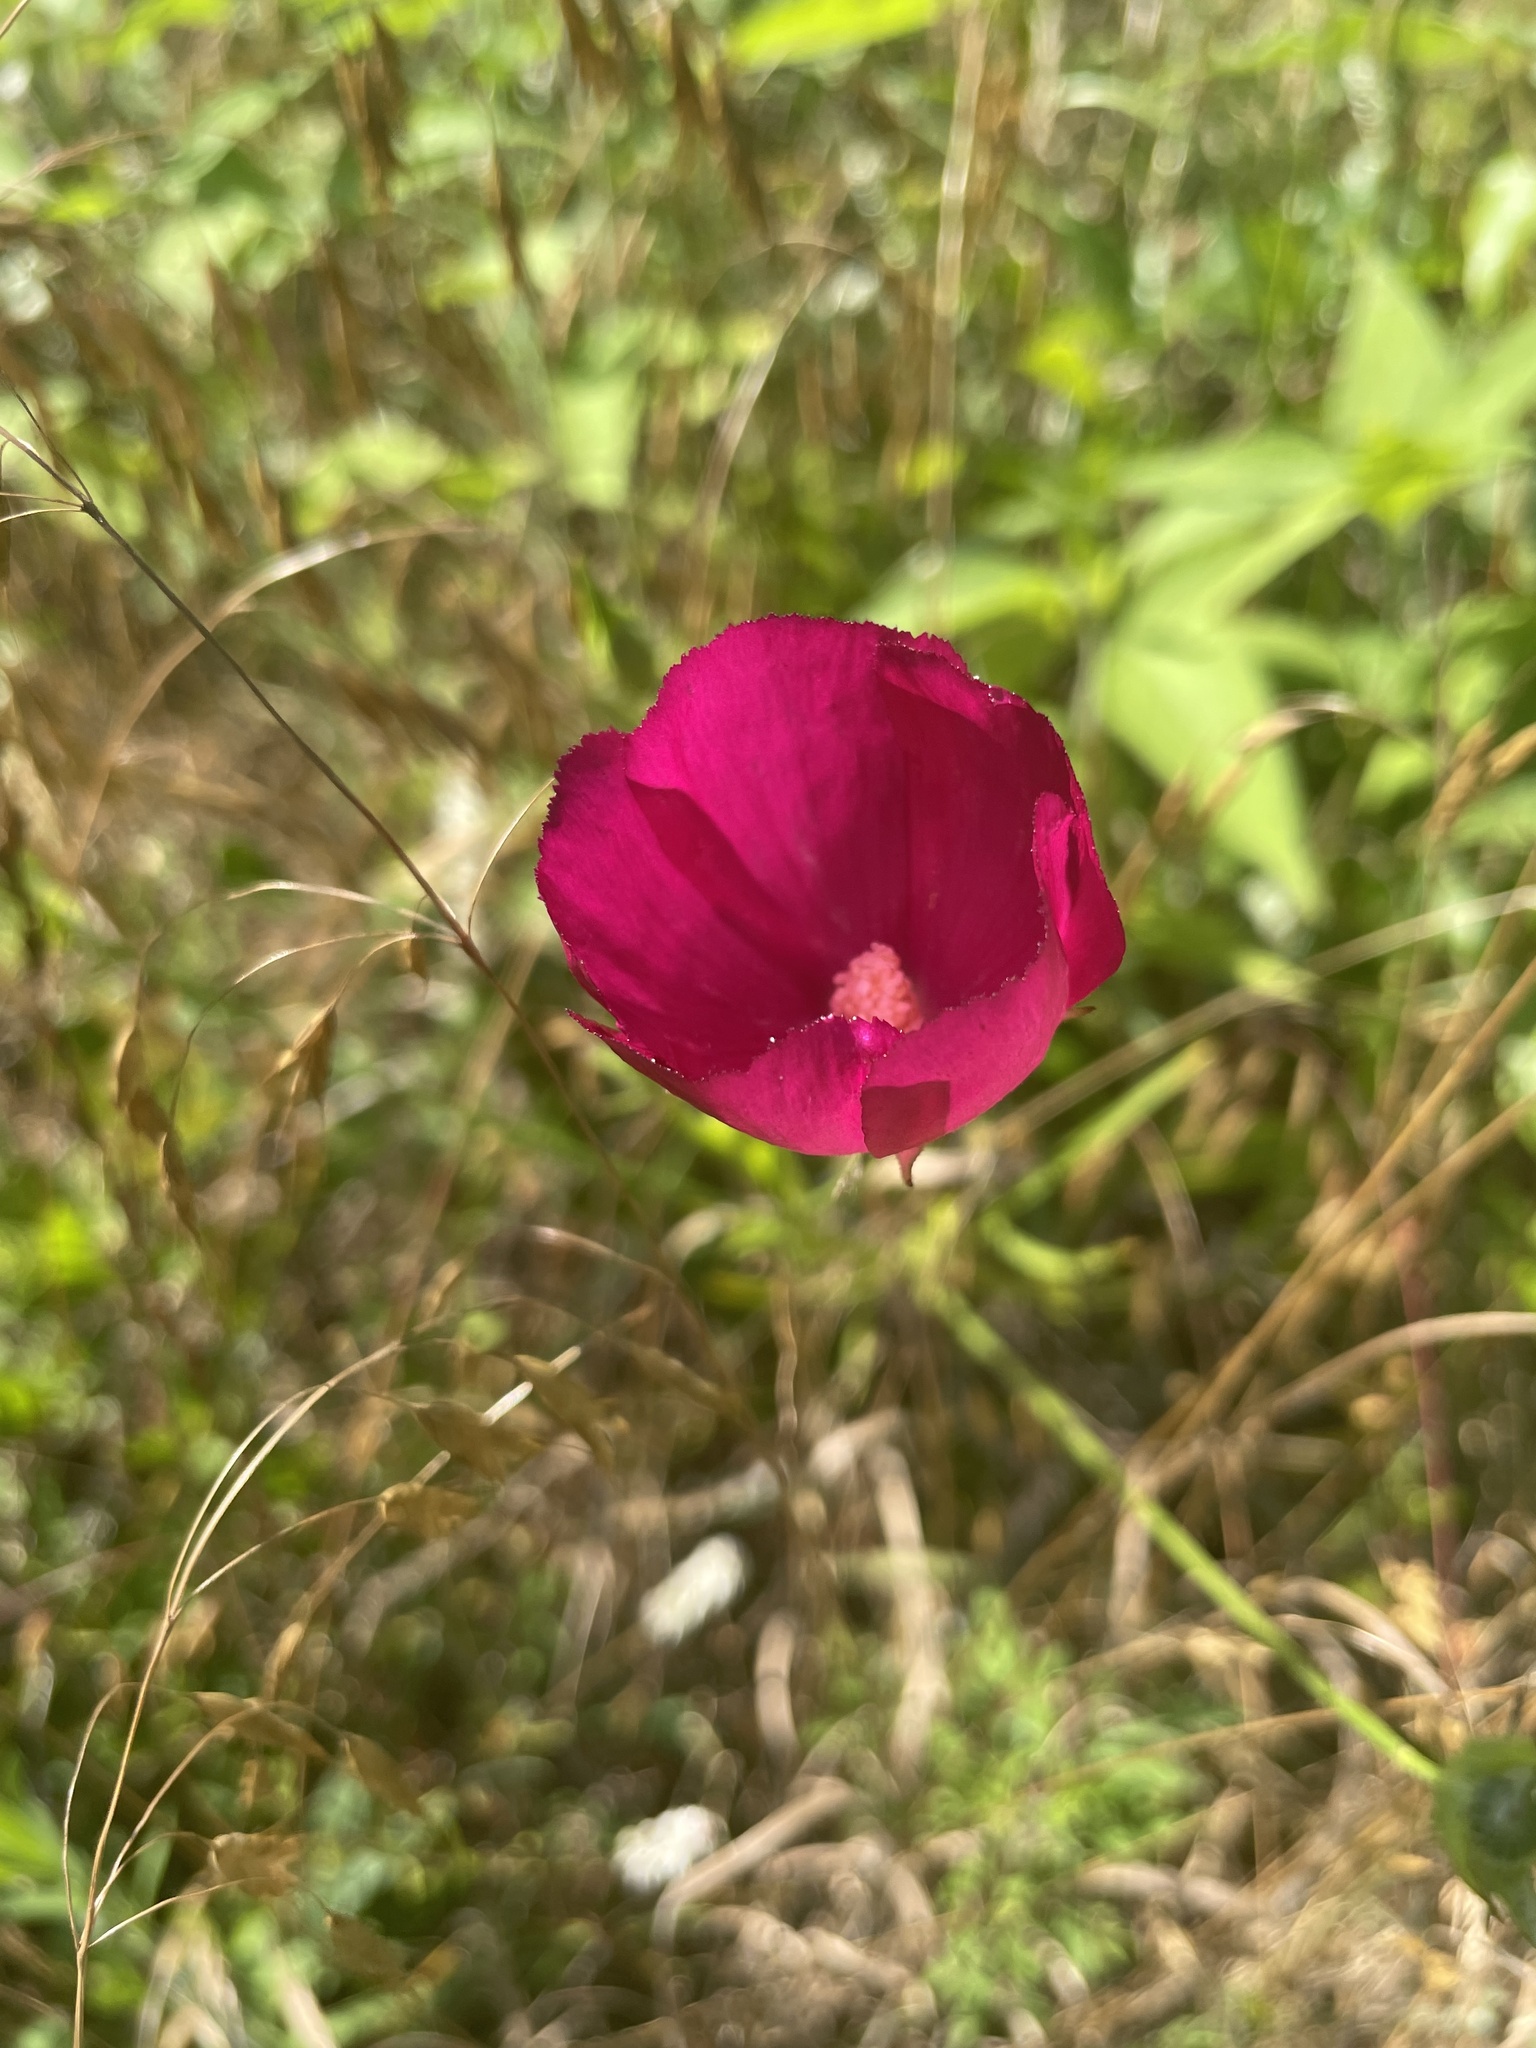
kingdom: Plantae
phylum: Tracheophyta
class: Magnoliopsida
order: Malvales
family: Malvaceae
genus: Callirhoe
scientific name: Callirhoe papaver
